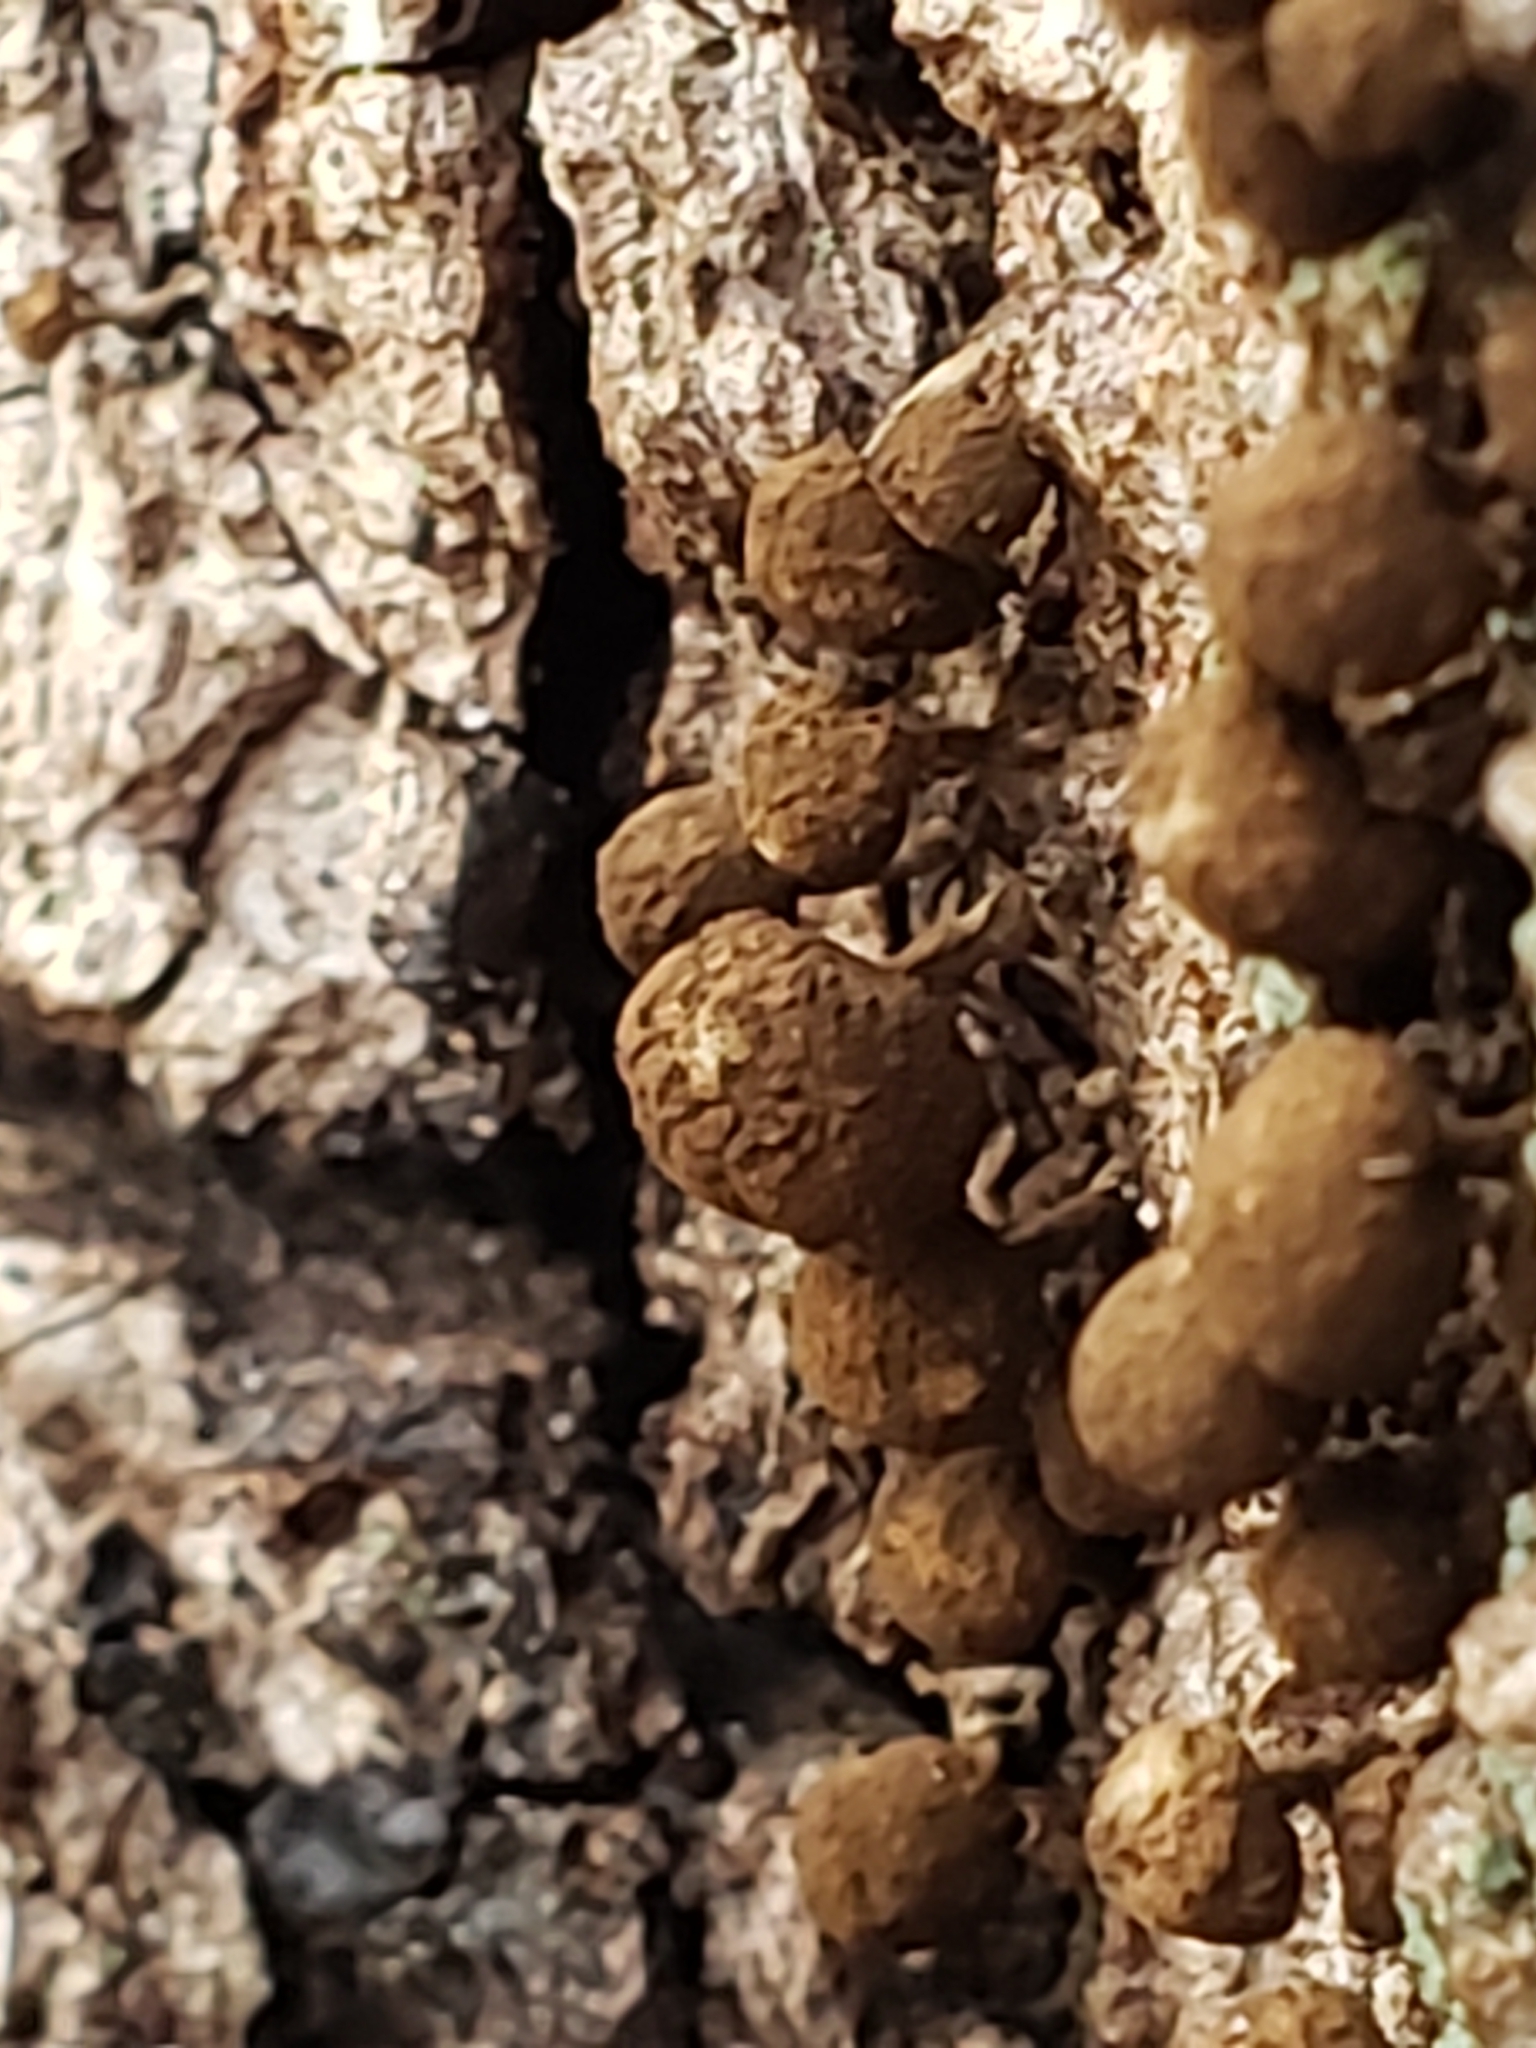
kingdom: Fungi
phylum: Basidiomycota
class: Atractiellomycetes
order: Atractiellales
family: Phleogenaceae
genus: Phleogena
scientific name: Phleogena faginea
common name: Fenugreek stalkball
